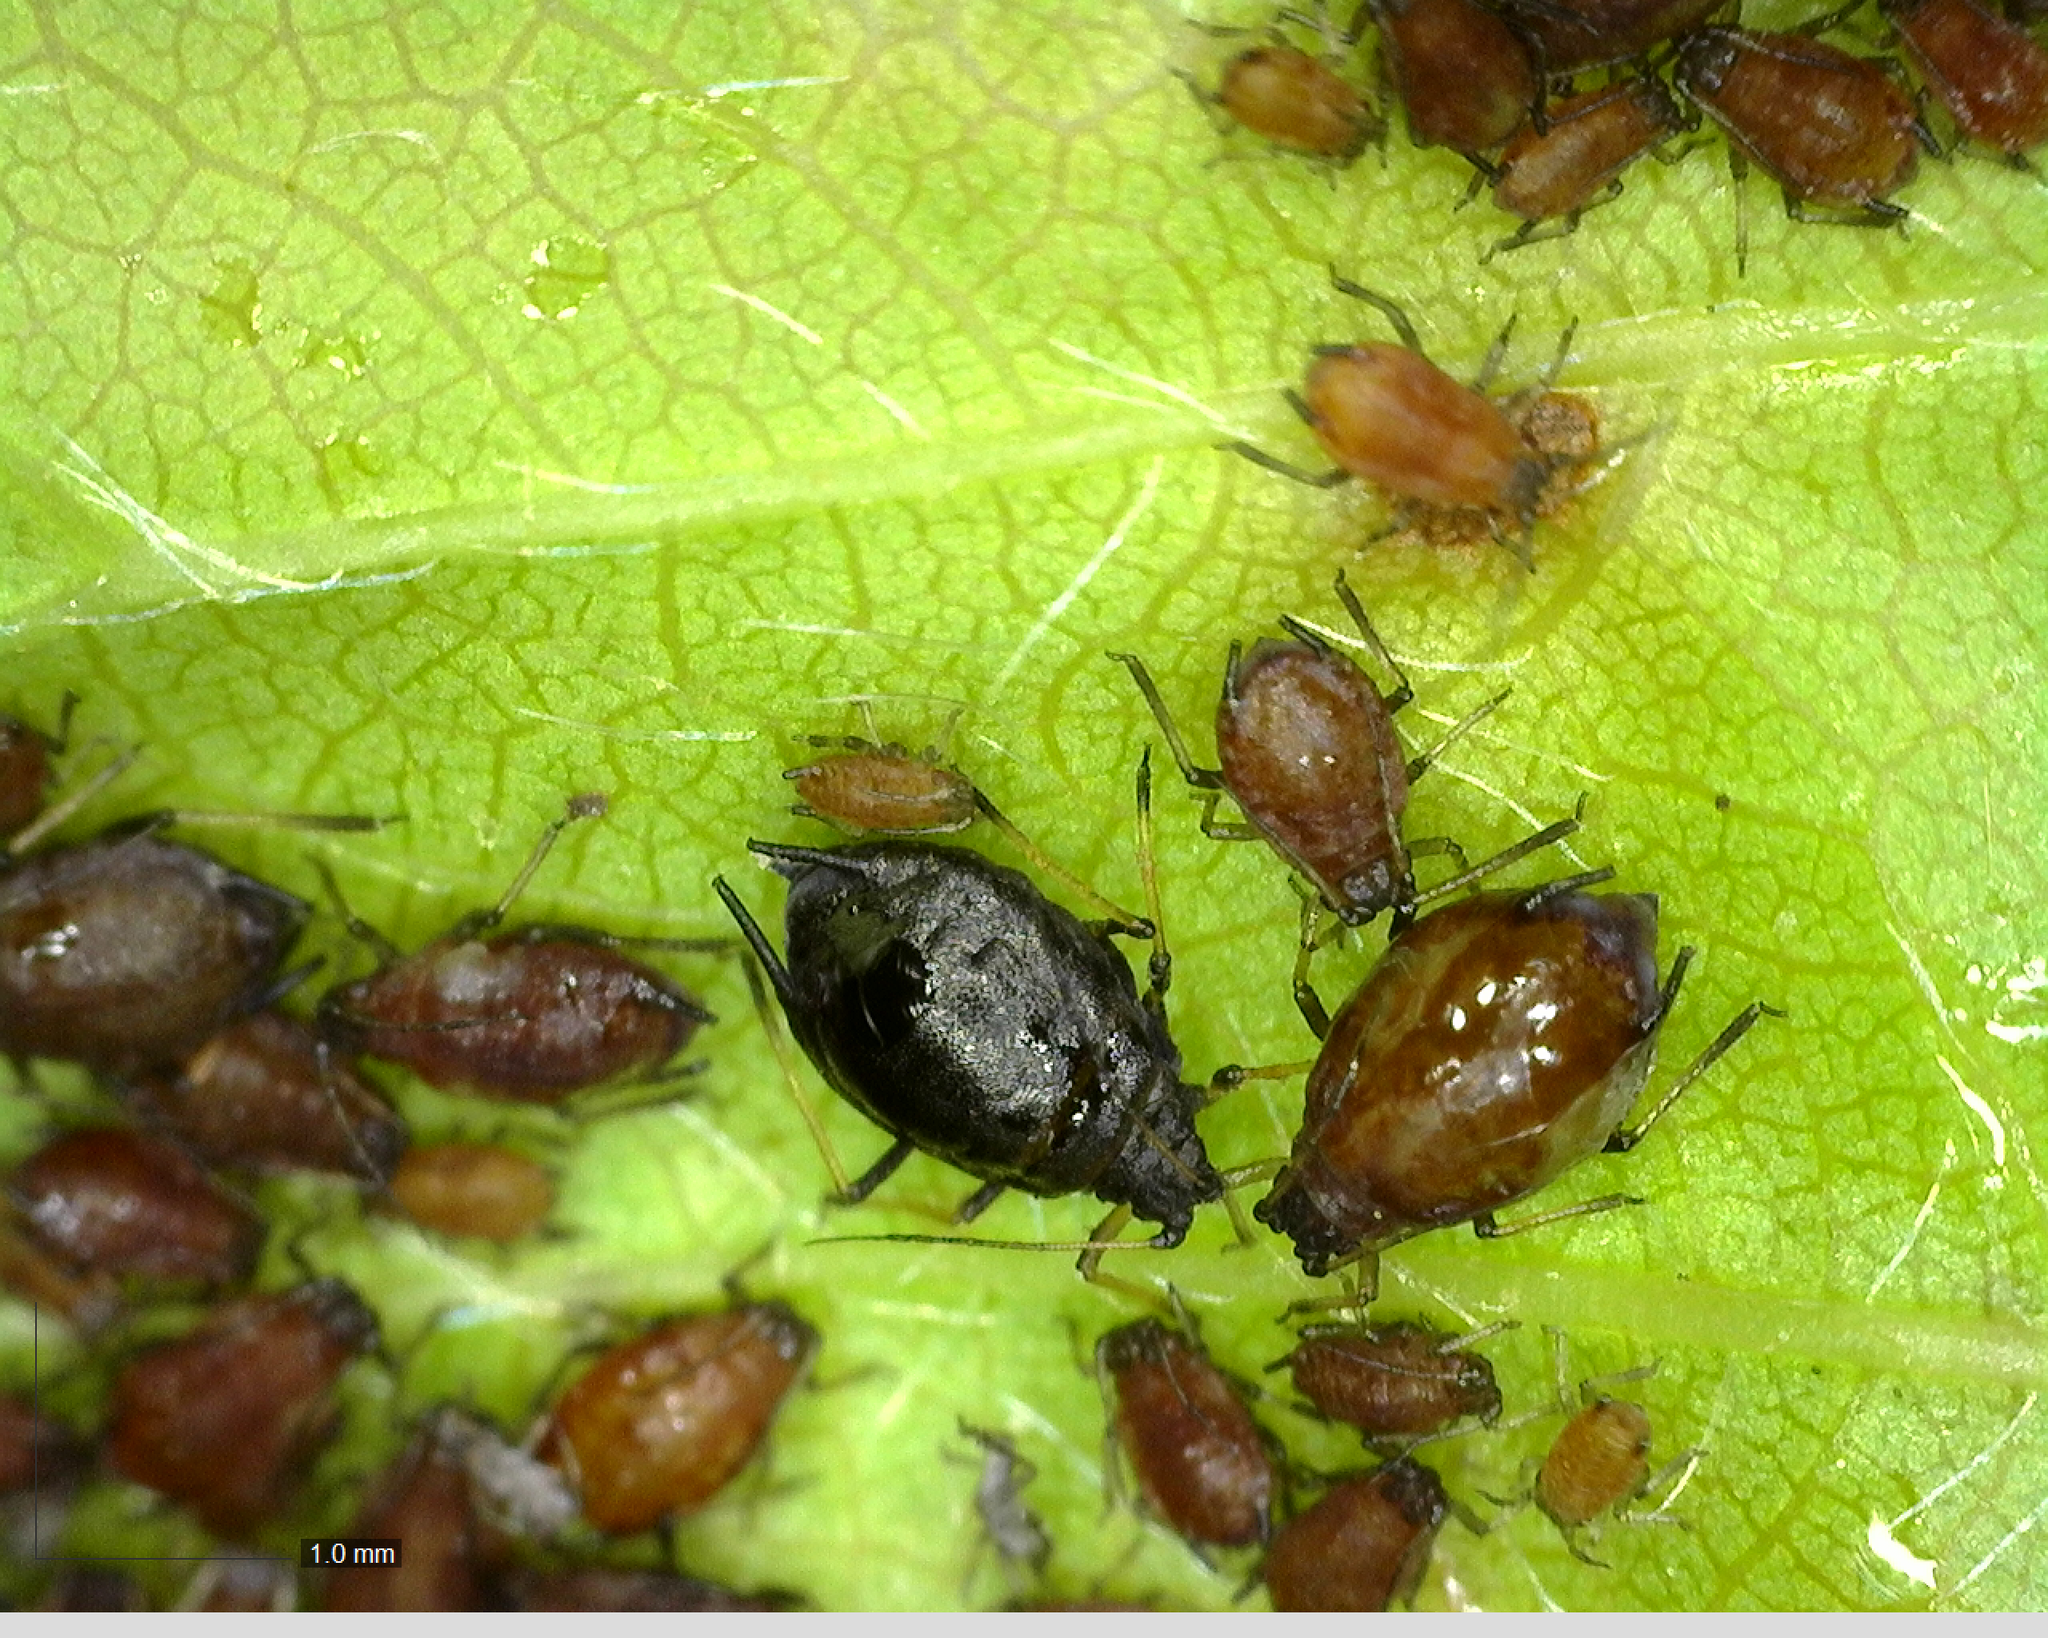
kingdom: Animalia
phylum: Arthropoda
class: Insecta
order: Hemiptera
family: Aphididae
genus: Myzus
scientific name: Myzus cerasi
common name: Black cherry aphid
